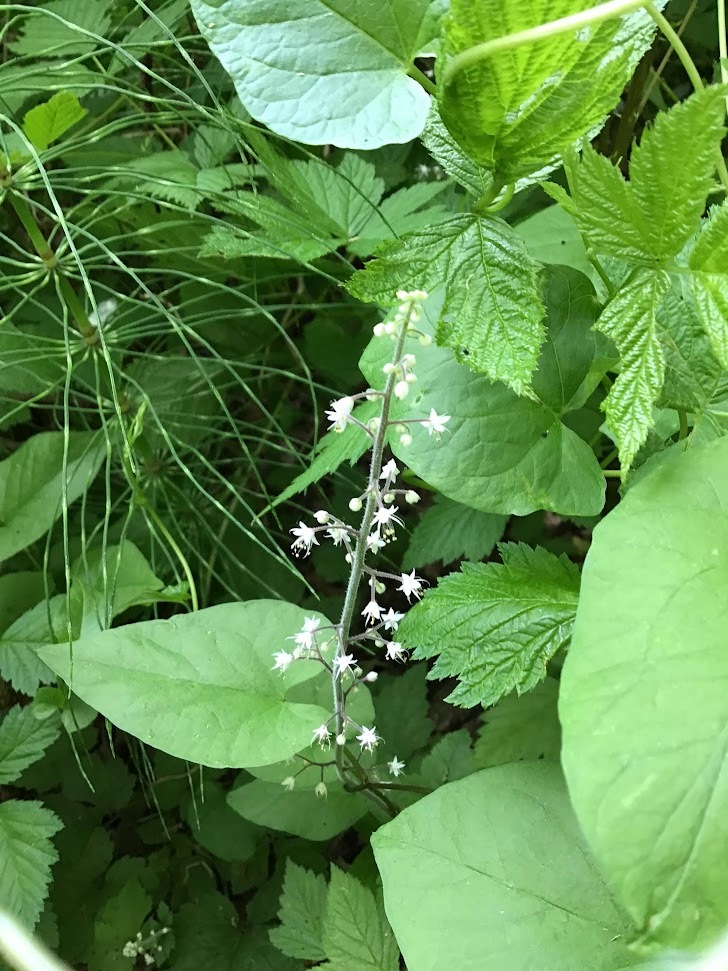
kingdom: Plantae
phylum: Tracheophyta
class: Magnoliopsida
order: Saxifragales
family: Saxifragaceae
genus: Tiarella
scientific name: Tiarella trifoliata
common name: Sugar-scoop
